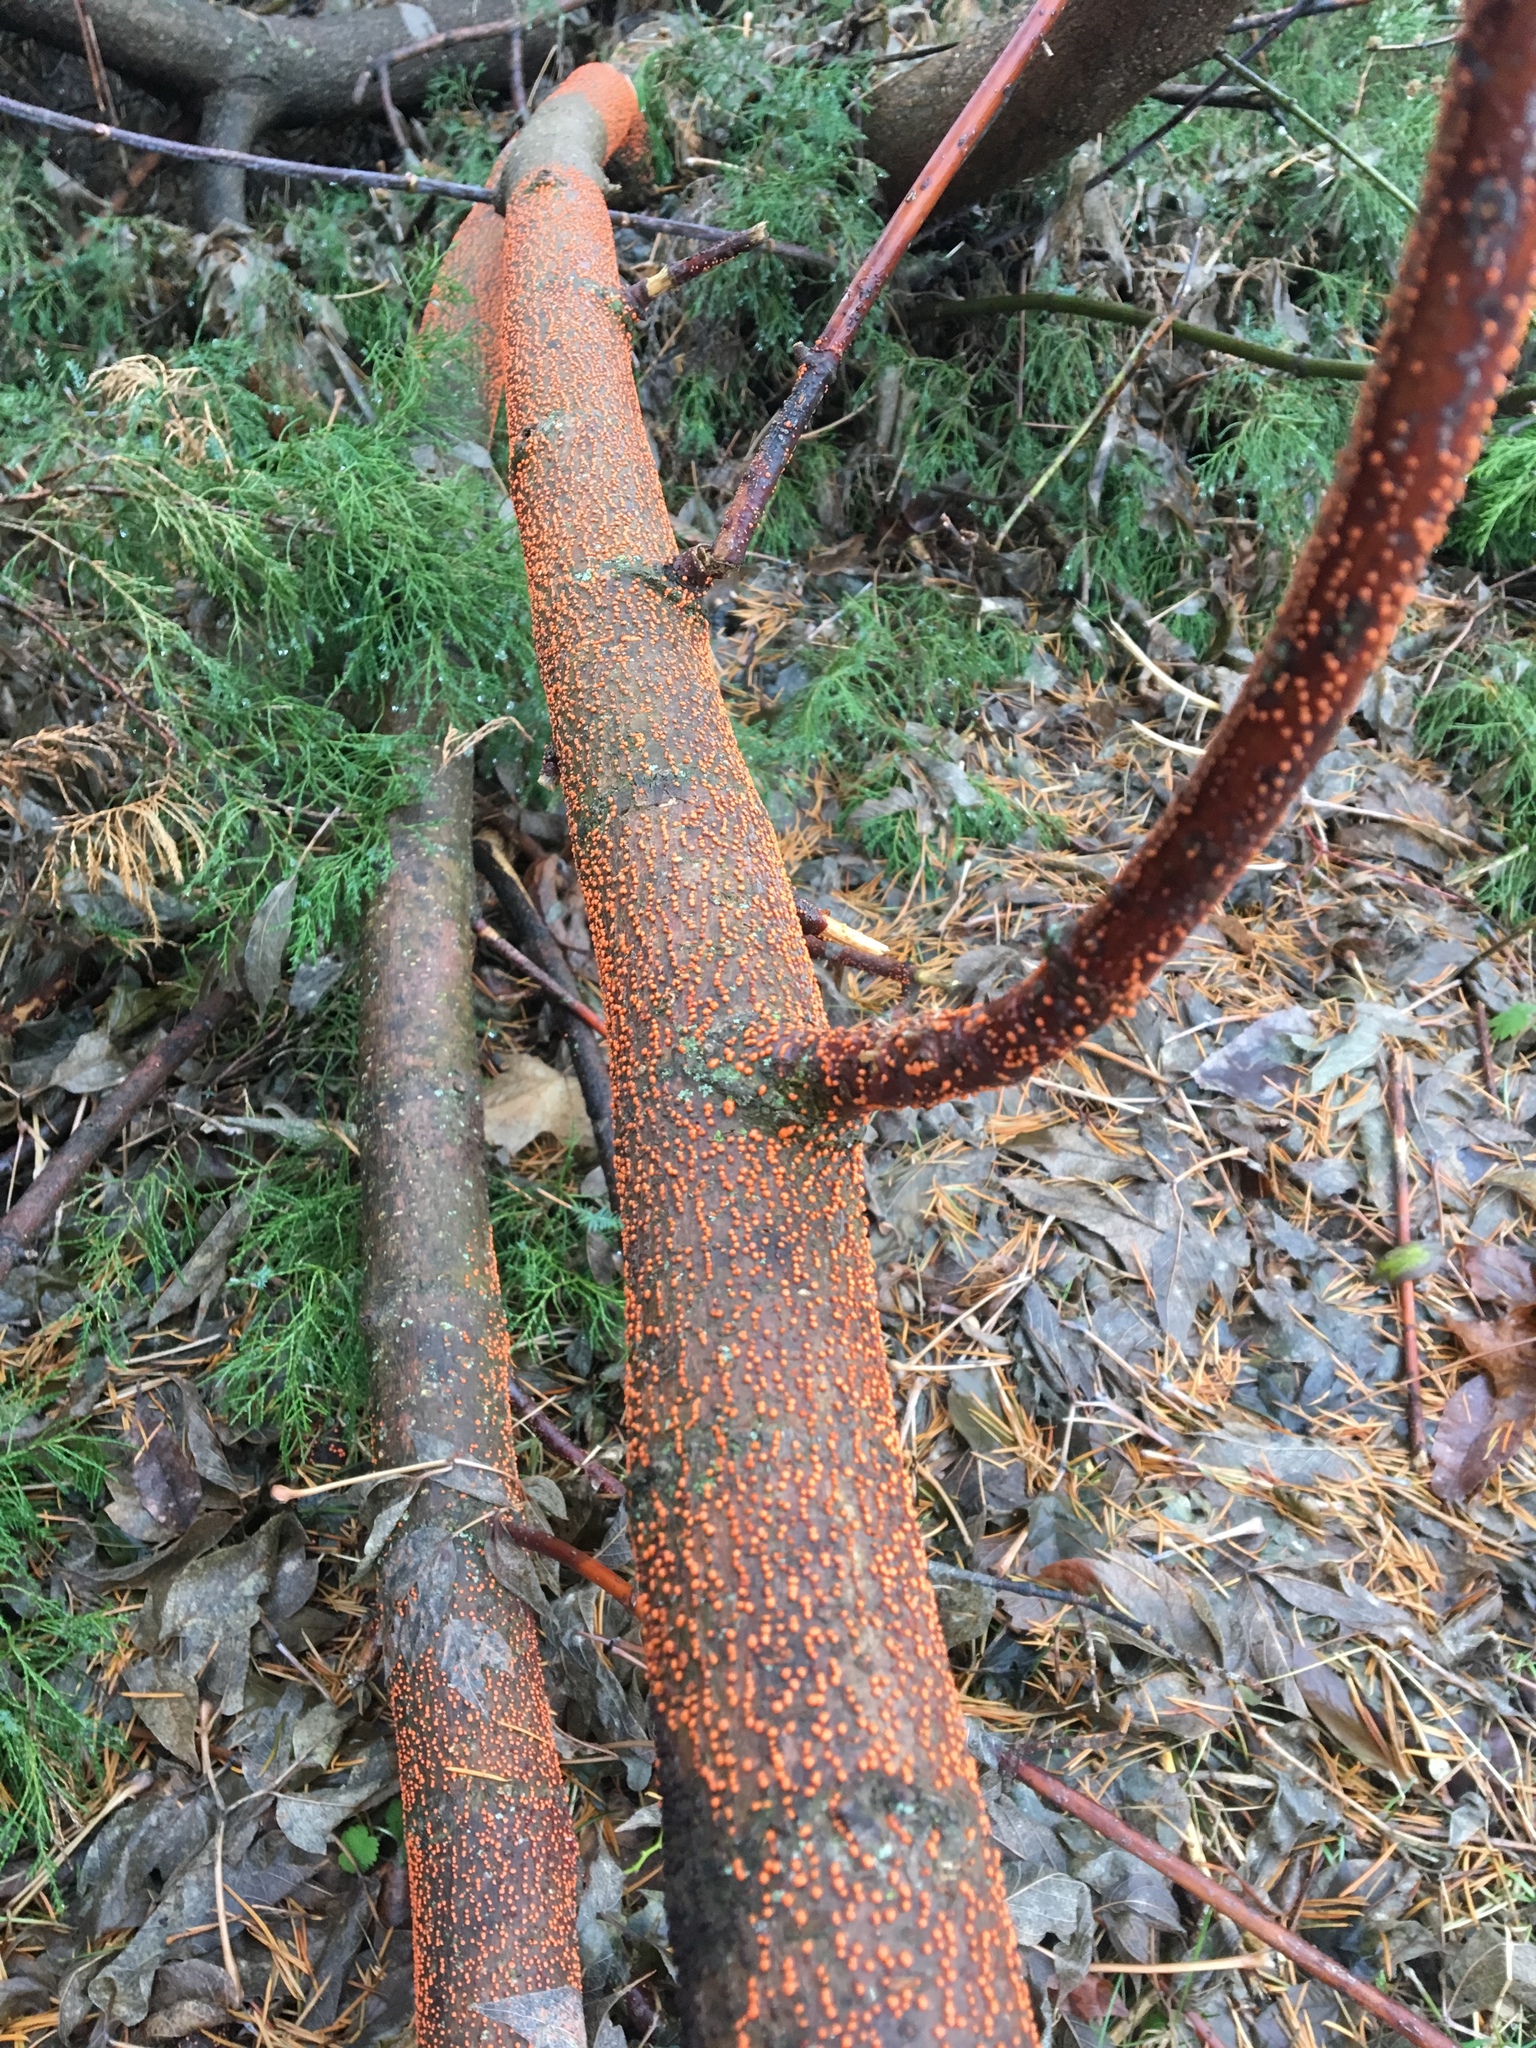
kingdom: Fungi
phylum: Ascomycota
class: Sordariomycetes
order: Hypocreales
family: Nectriaceae
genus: Nectria
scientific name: Nectria cinnabarina
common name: Coral spot
